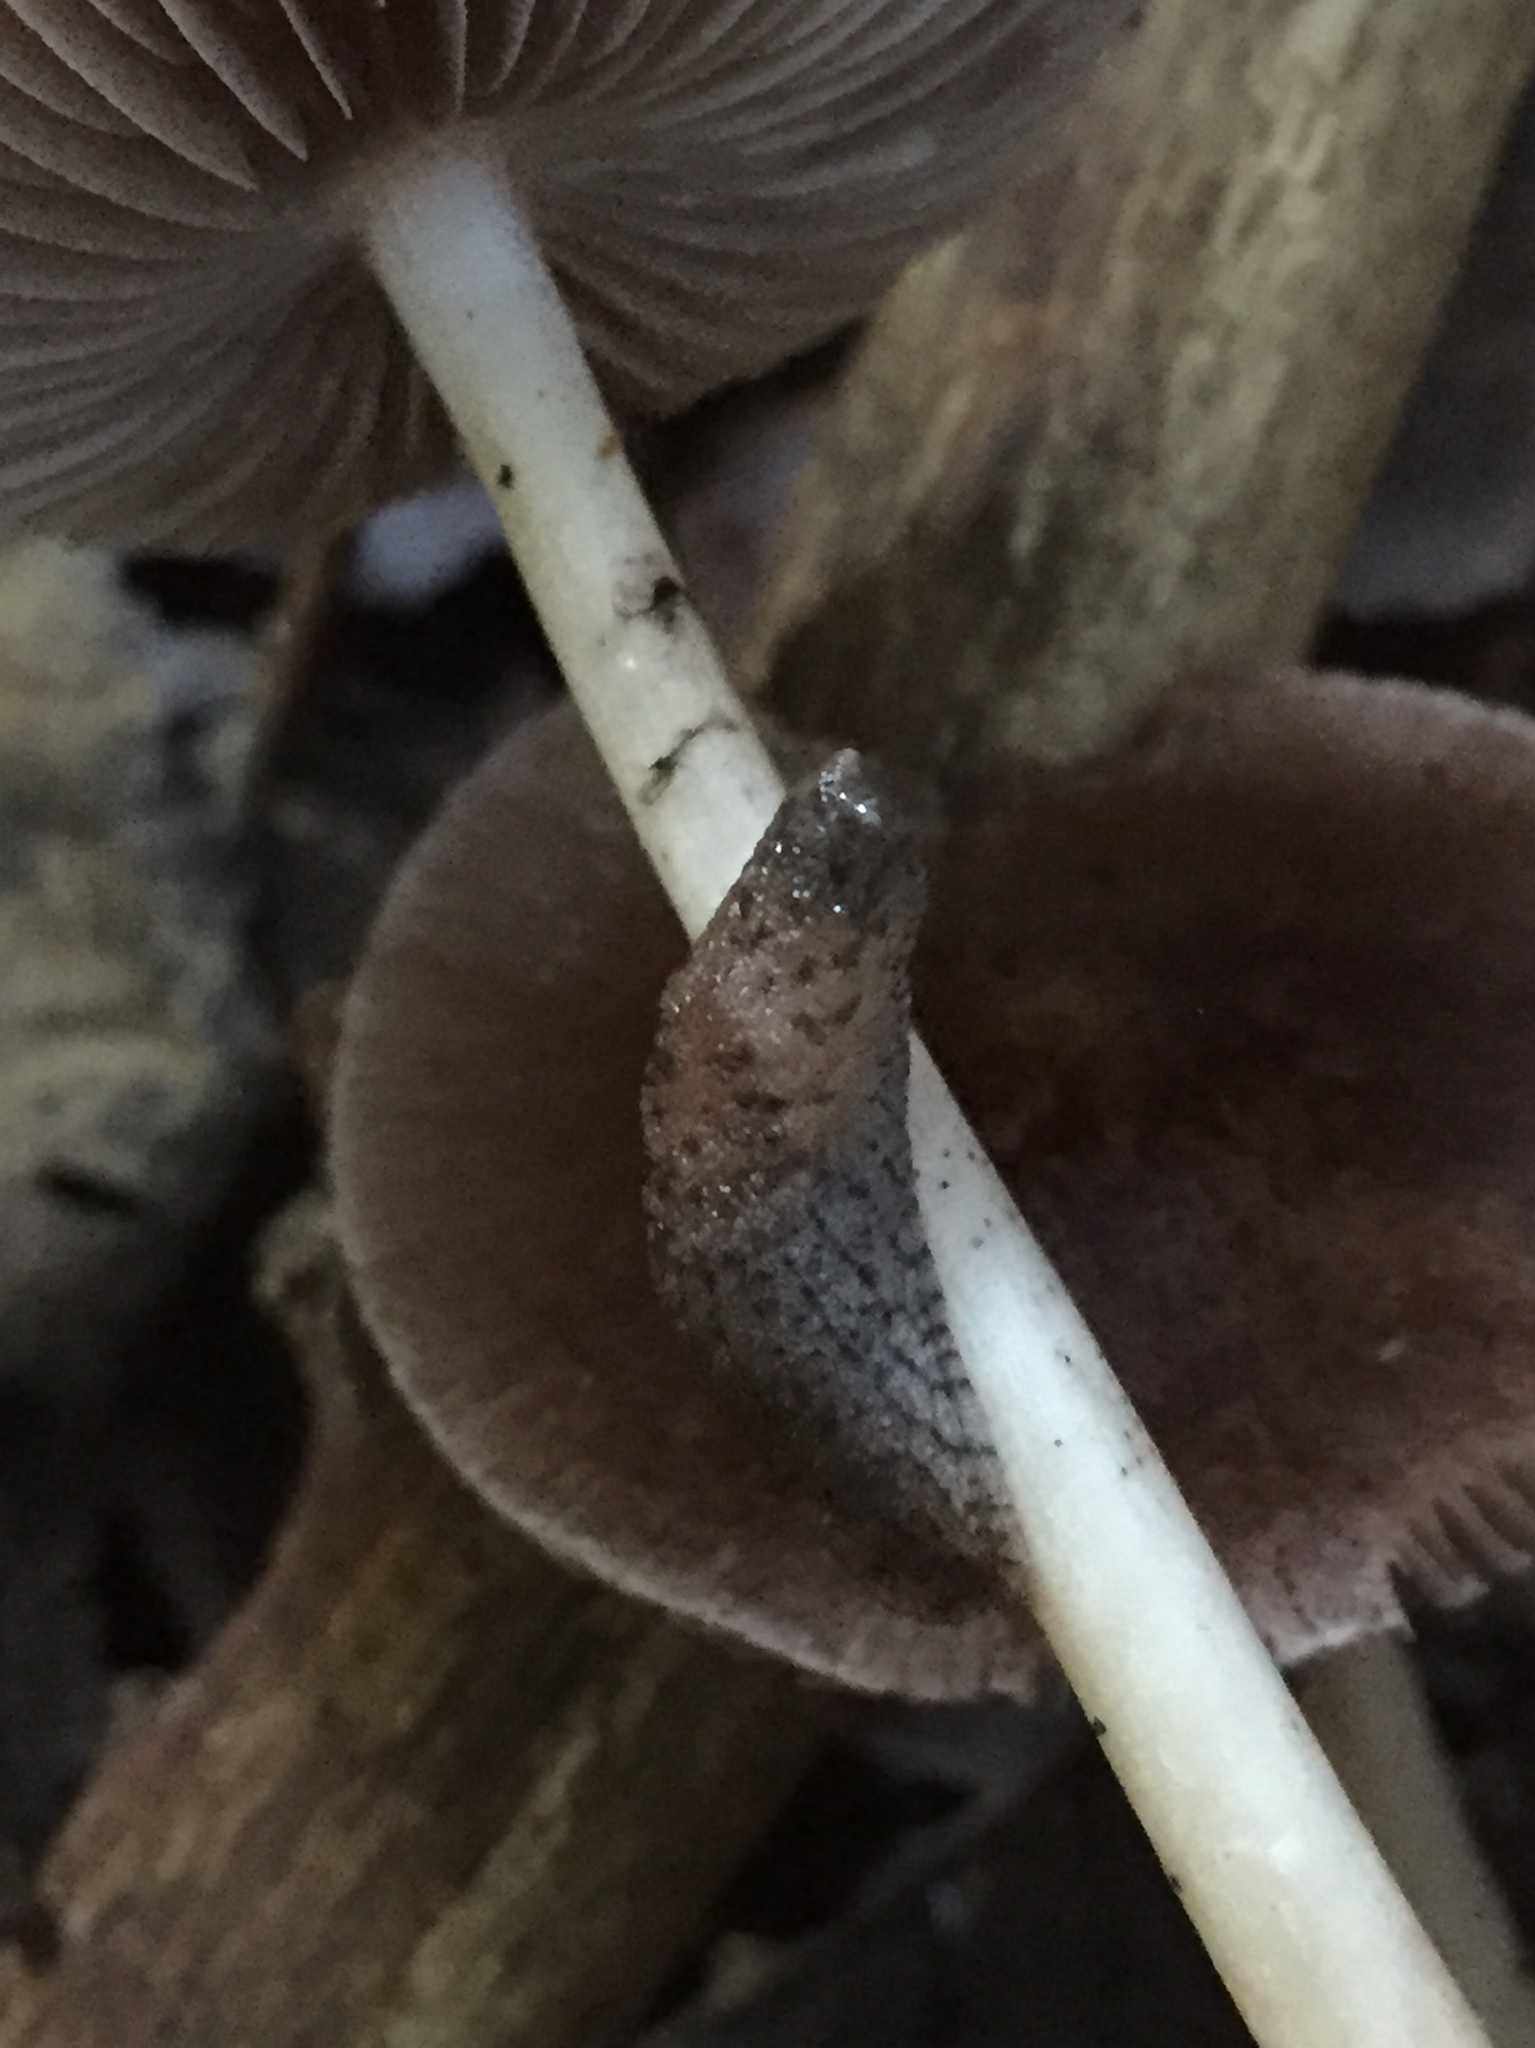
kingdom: Animalia
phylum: Mollusca
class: Gastropoda
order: Stylommatophora
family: Ariolimacidae
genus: Hesperarion
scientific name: Hesperarion niger
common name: Black western slug
